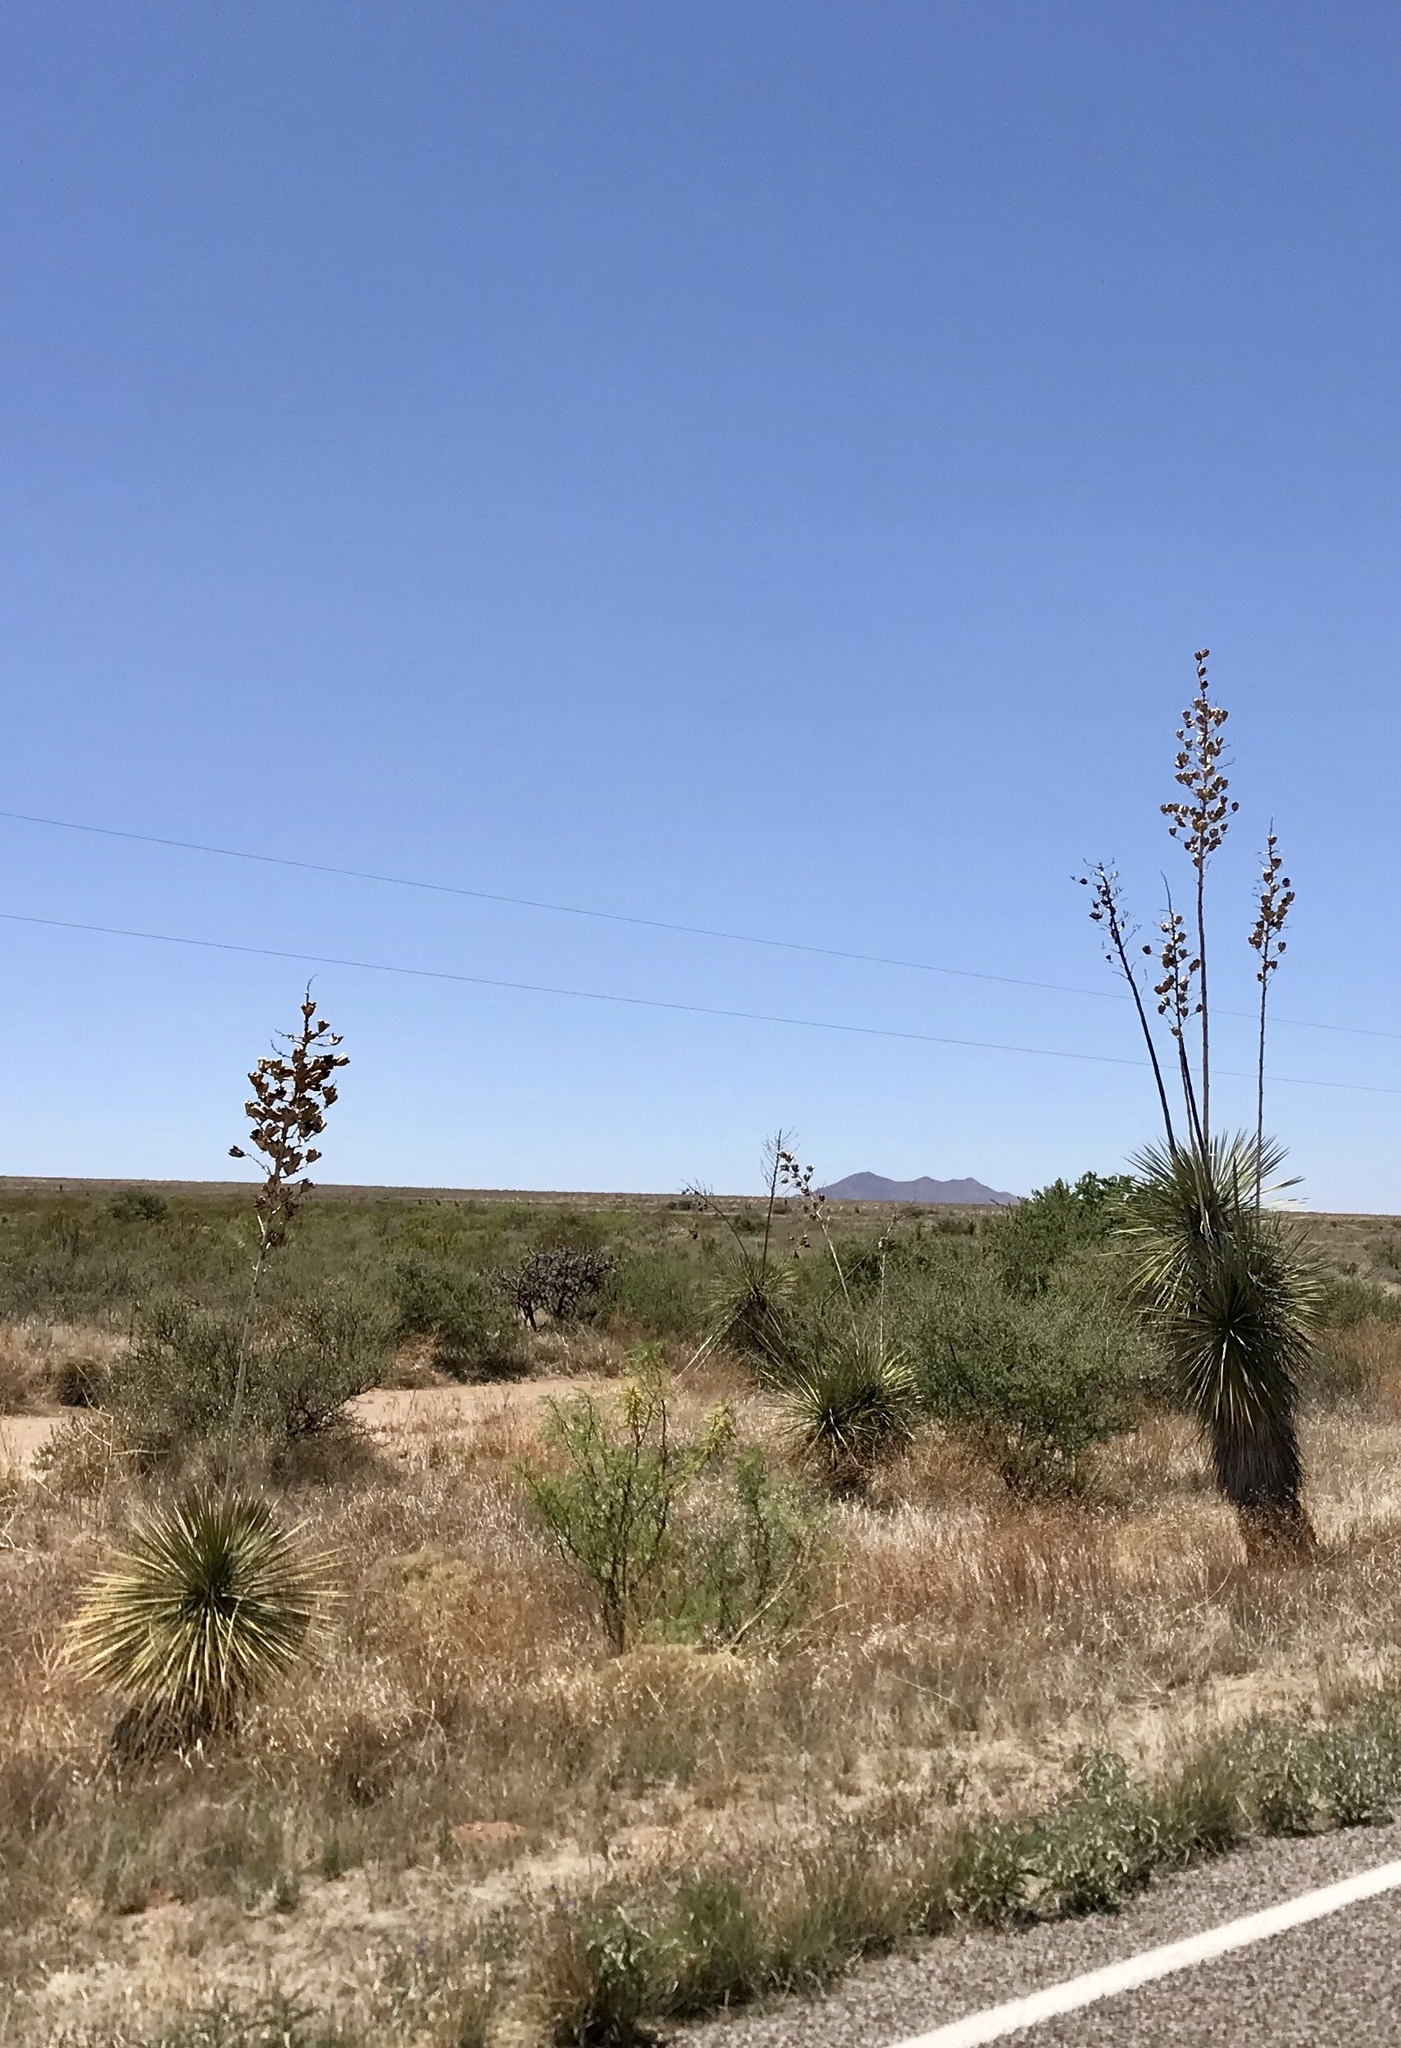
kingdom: Plantae
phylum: Tracheophyta
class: Liliopsida
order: Asparagales
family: Asparagaceae
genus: Yucca
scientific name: Yucca elata
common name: Palmella
